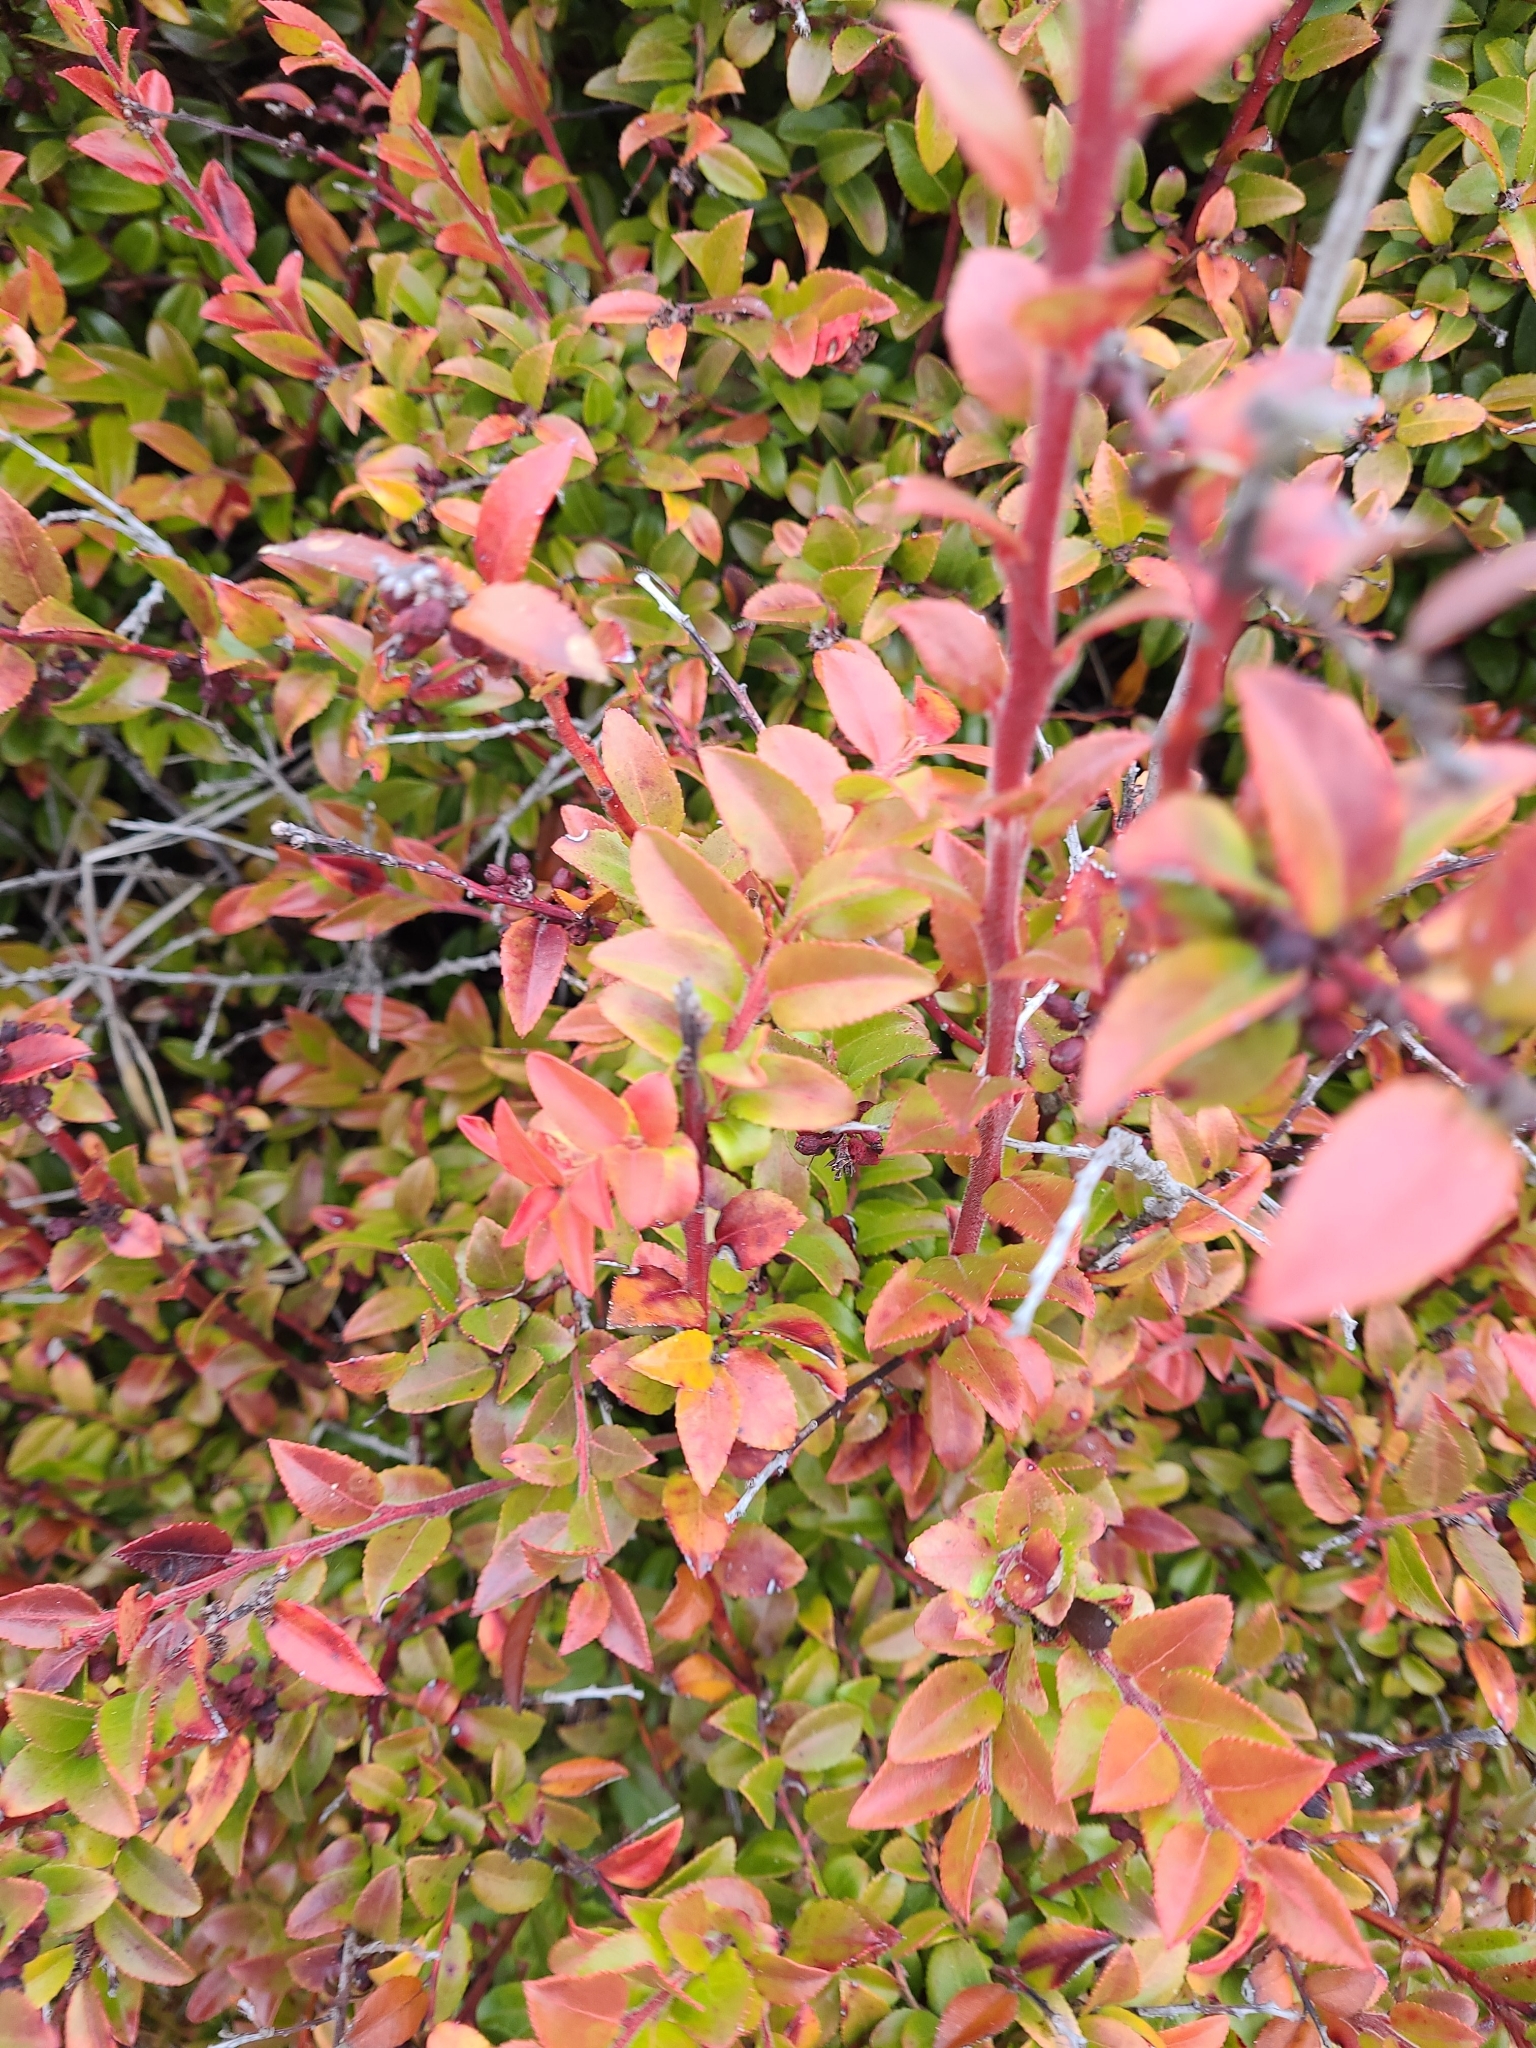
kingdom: Plantae
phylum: Tracheophyta
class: Magnoliopsida
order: Ericales
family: Ericaceae
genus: Vaccinium
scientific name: Vaccinium ovatum
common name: California-huckleberry
